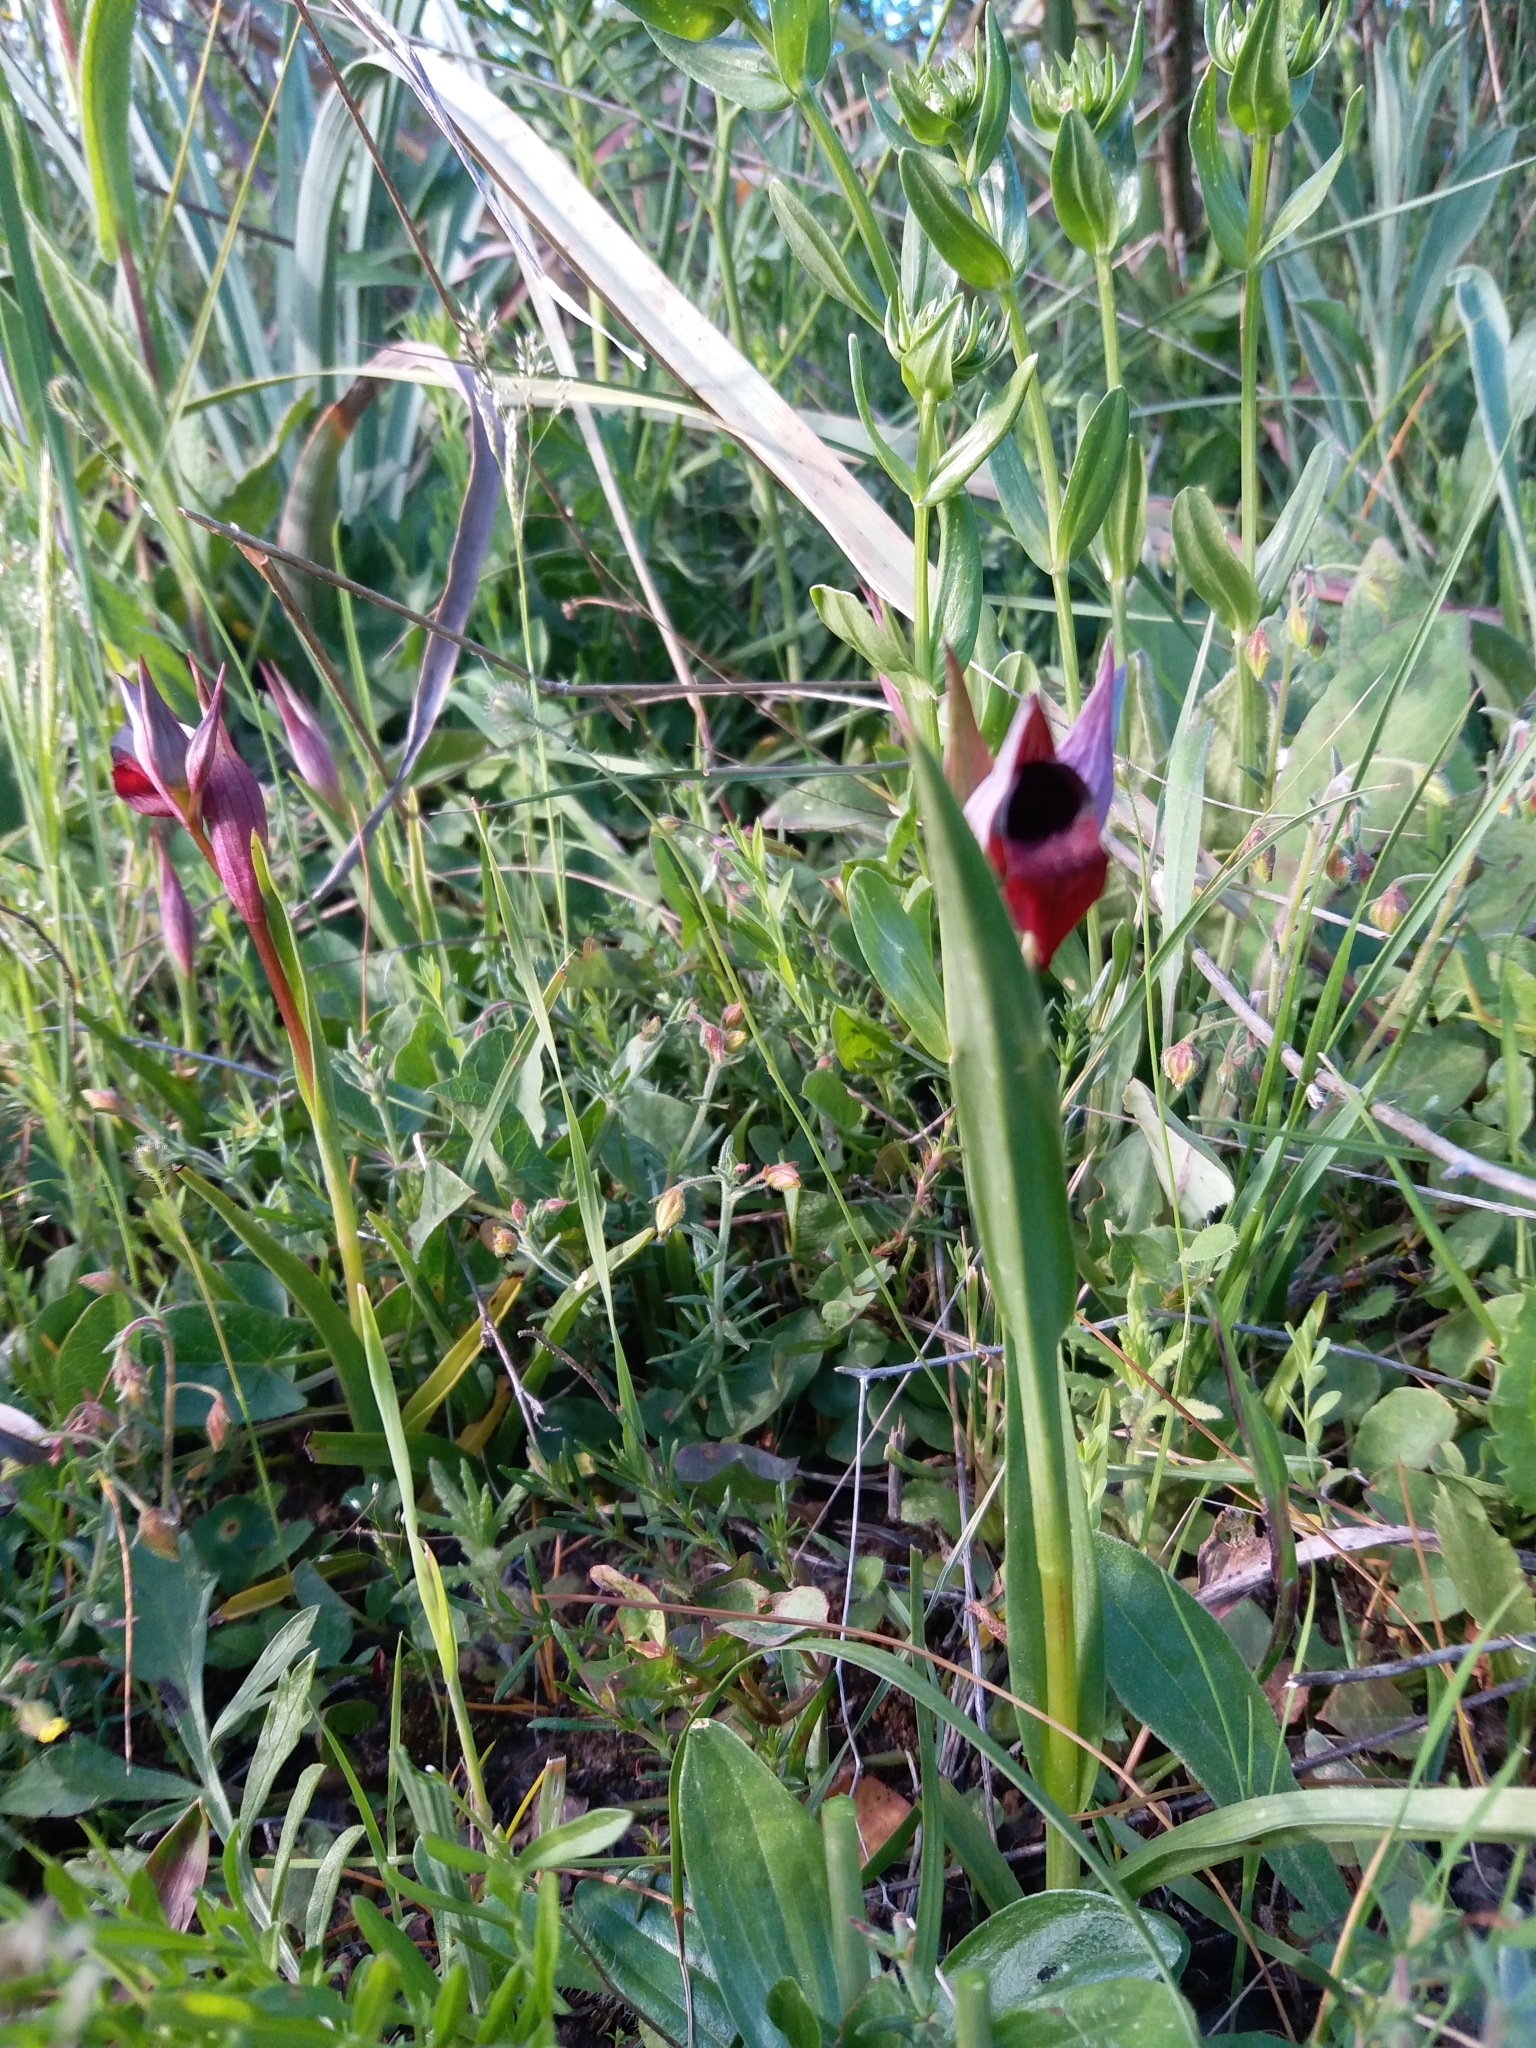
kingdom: Plantae
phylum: Tracheophyta
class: Liliopsida
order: Asparagales
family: Orchidaceae
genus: Serapias
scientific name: Serapias lingua
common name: Tongue-orchid
